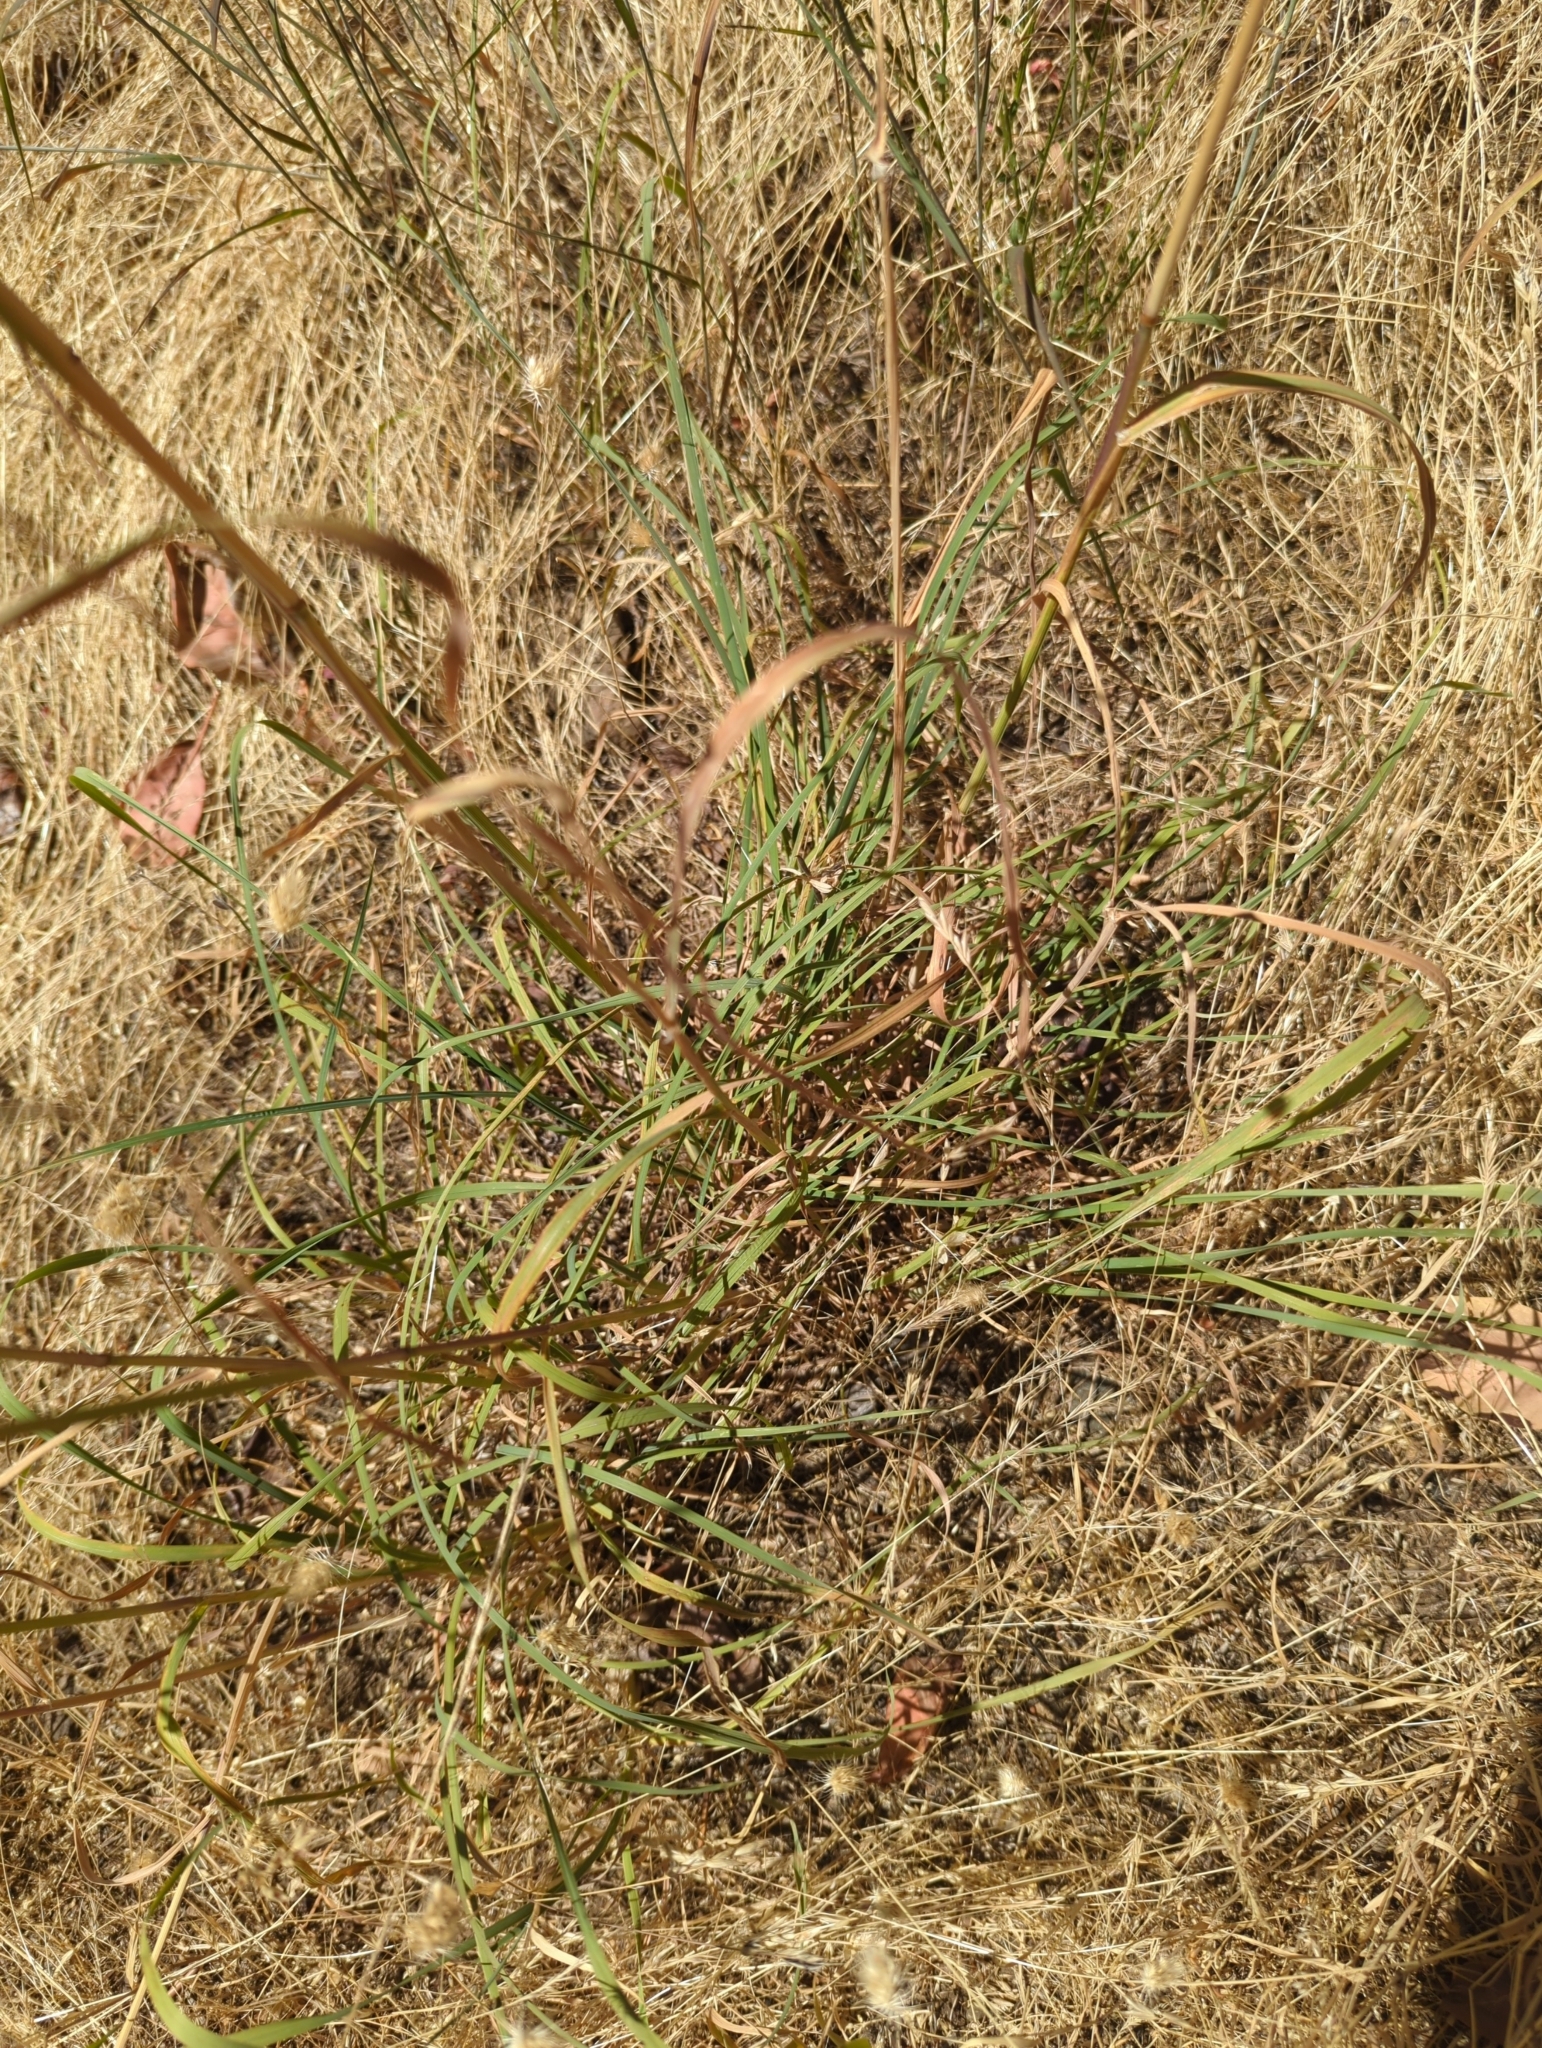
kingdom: Plantae
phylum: Tracheophyta
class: Liliopsida
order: Poales
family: Poaceae
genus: Dactylis
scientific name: Dactylis glomerata
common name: Orchardgrass
